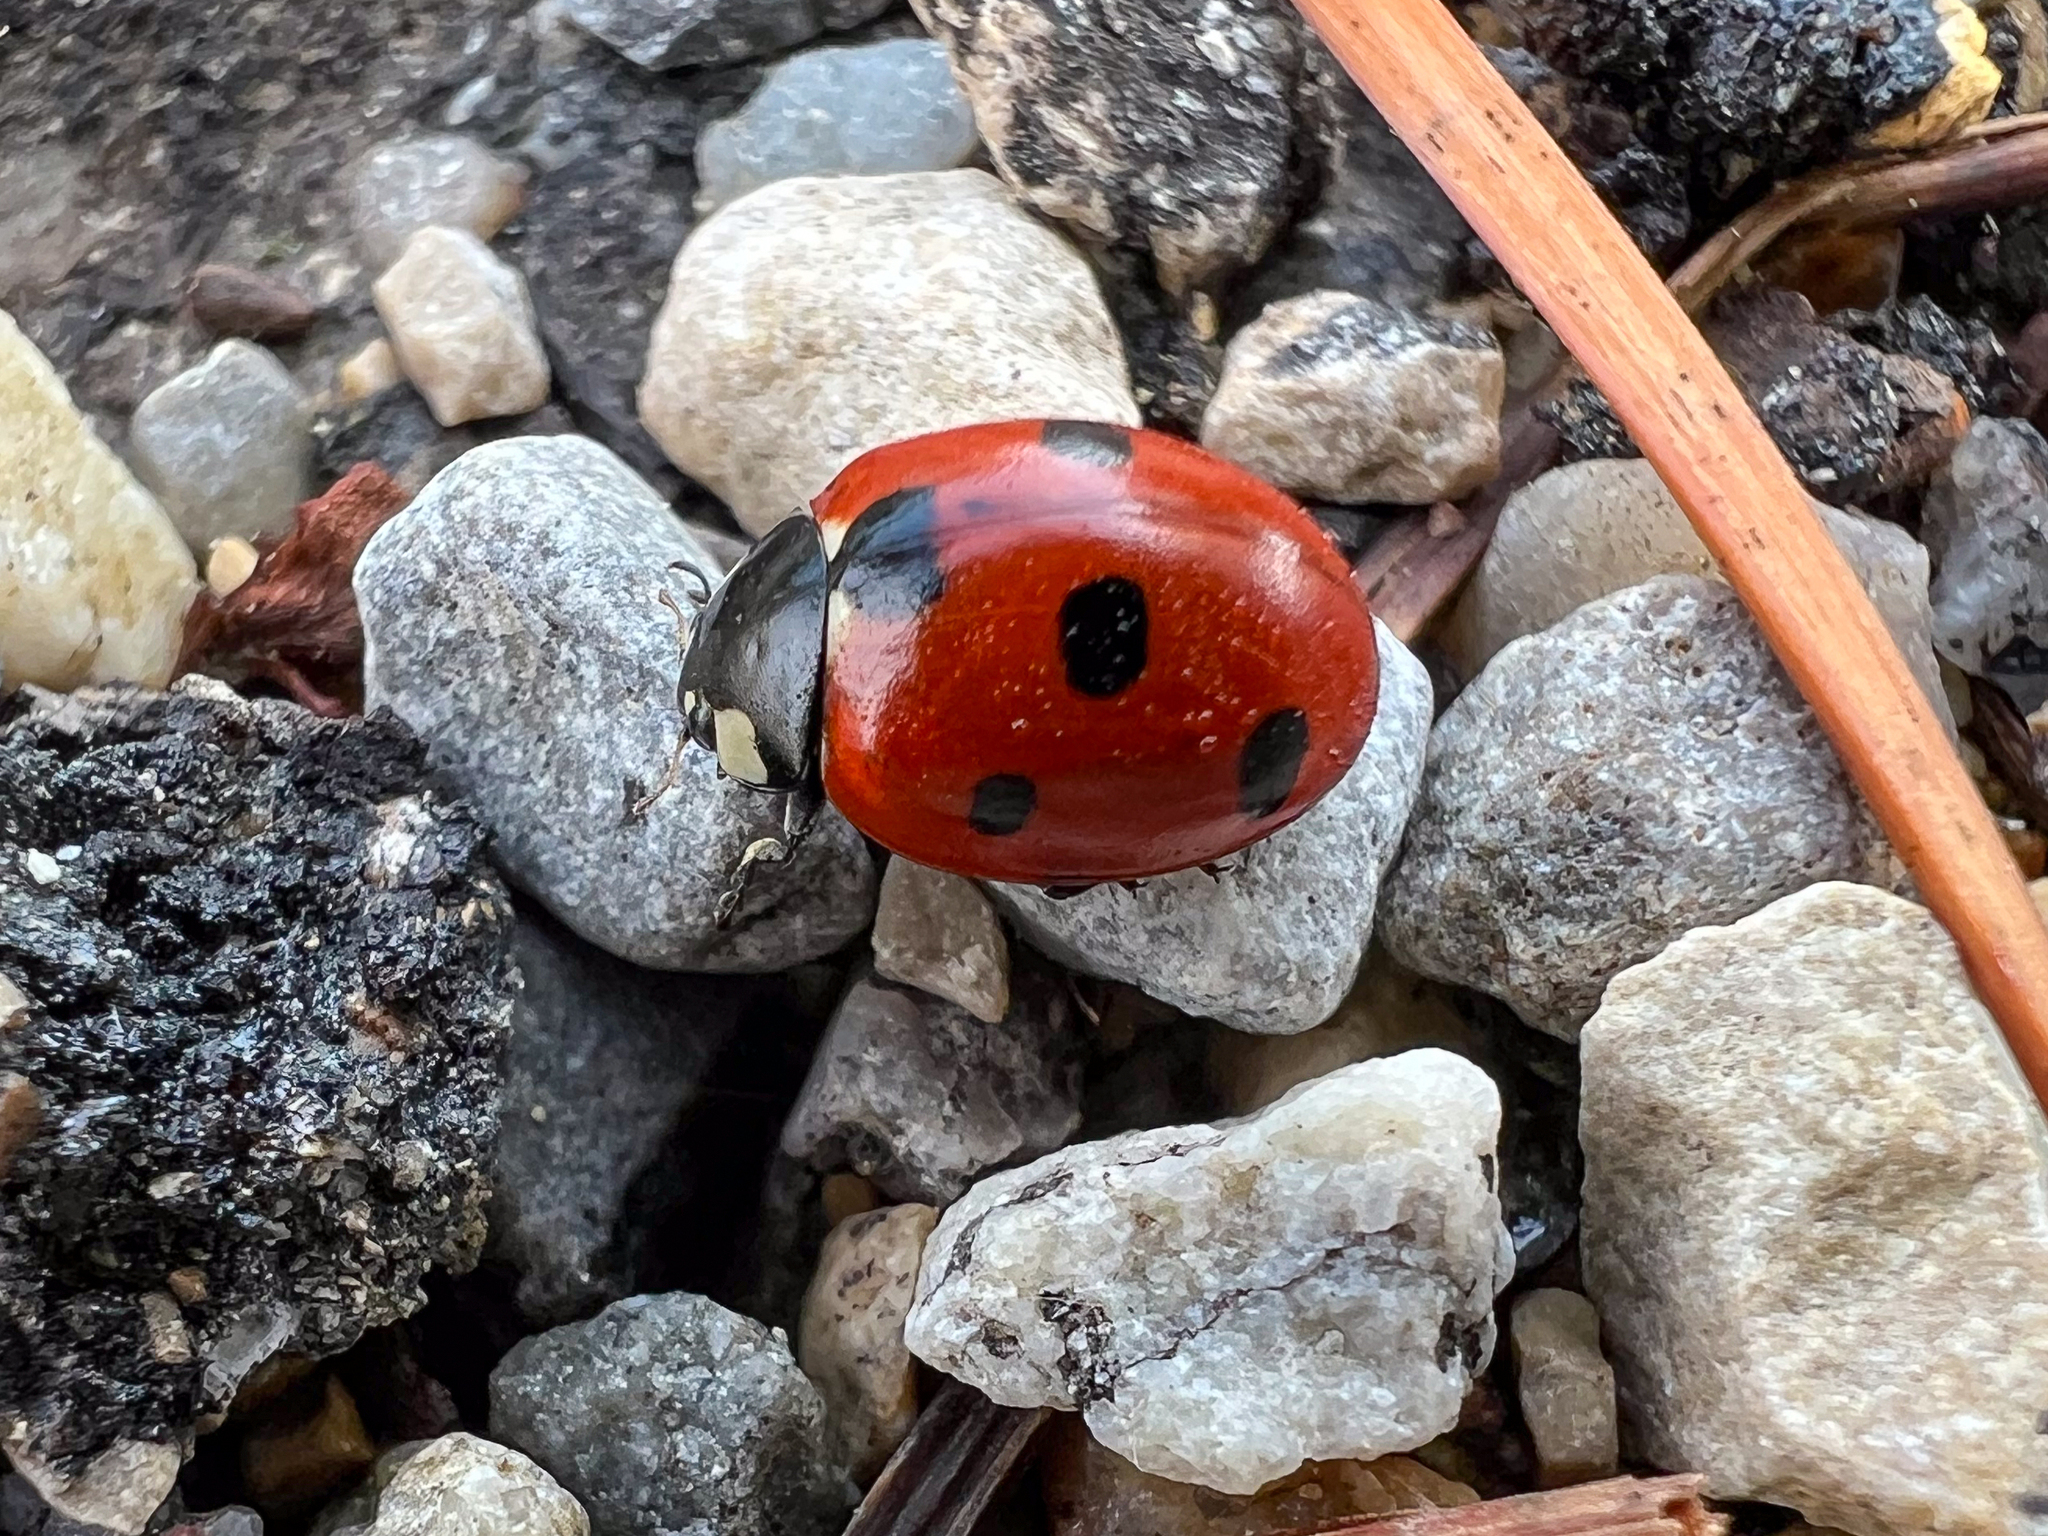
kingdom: Animalia
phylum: Arthropoda
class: Insecta
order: Coleoptera
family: Coccinellidae
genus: Coccinella
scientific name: Coccinella septempunctata
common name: Sevenspotted lady beetle
